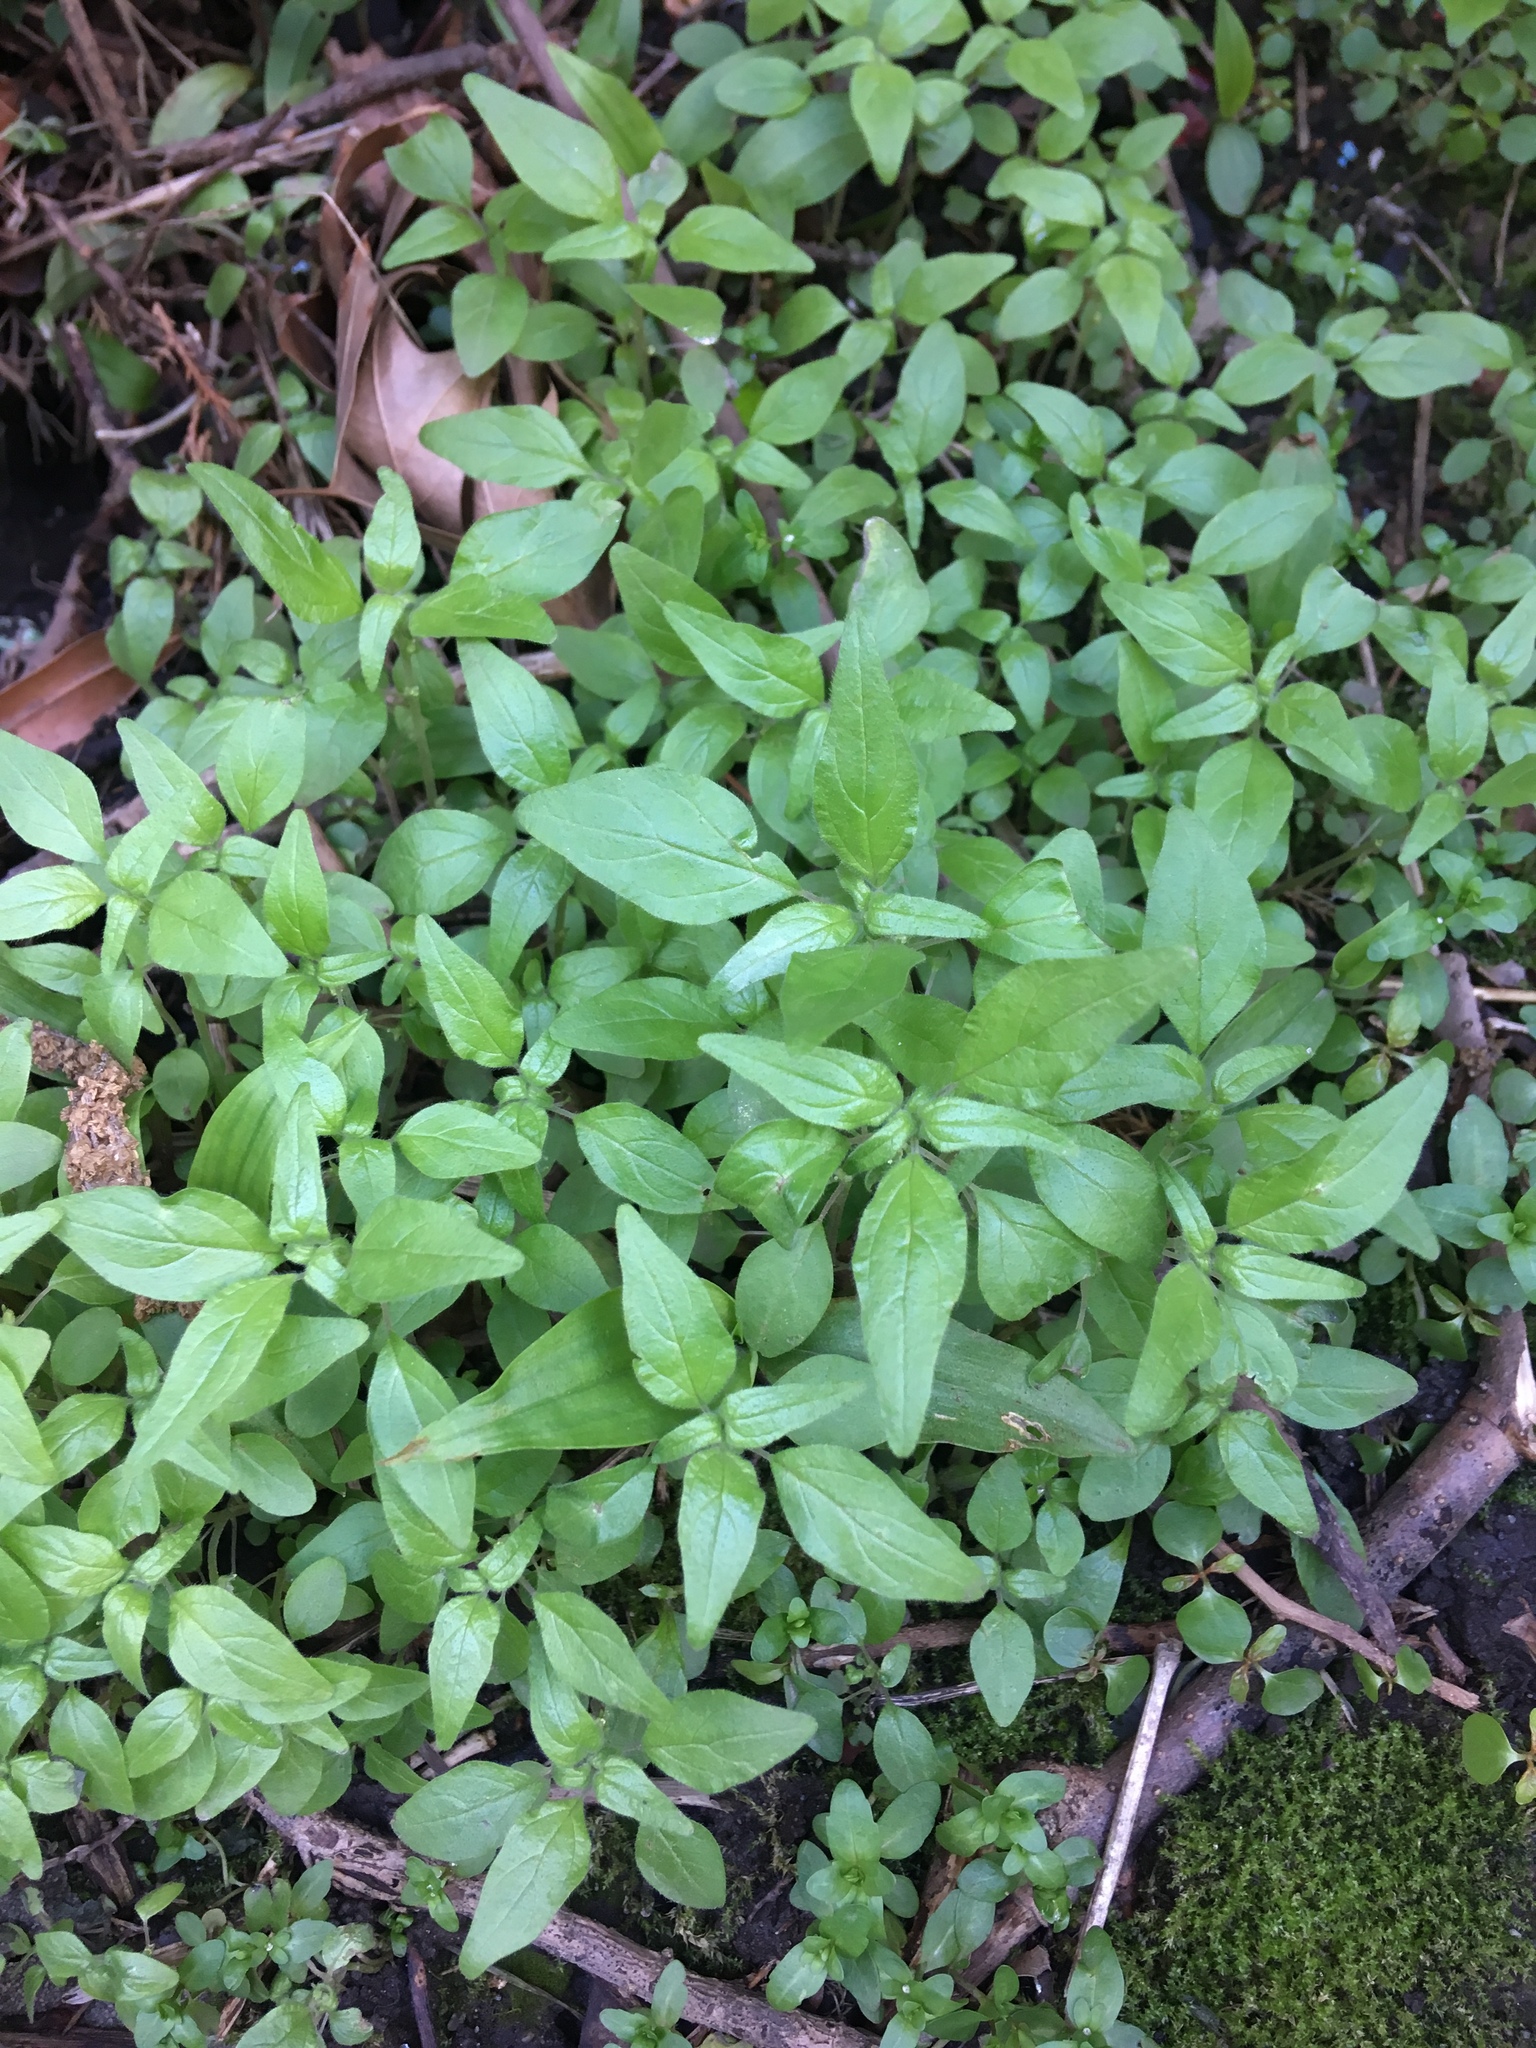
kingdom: Plantae
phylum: Tracheophyta
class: Magnoliopsida
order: Rosales
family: Urticaceae
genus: Parietaria
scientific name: Parietaria pensylvanica
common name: Pennsylvania pellitory
